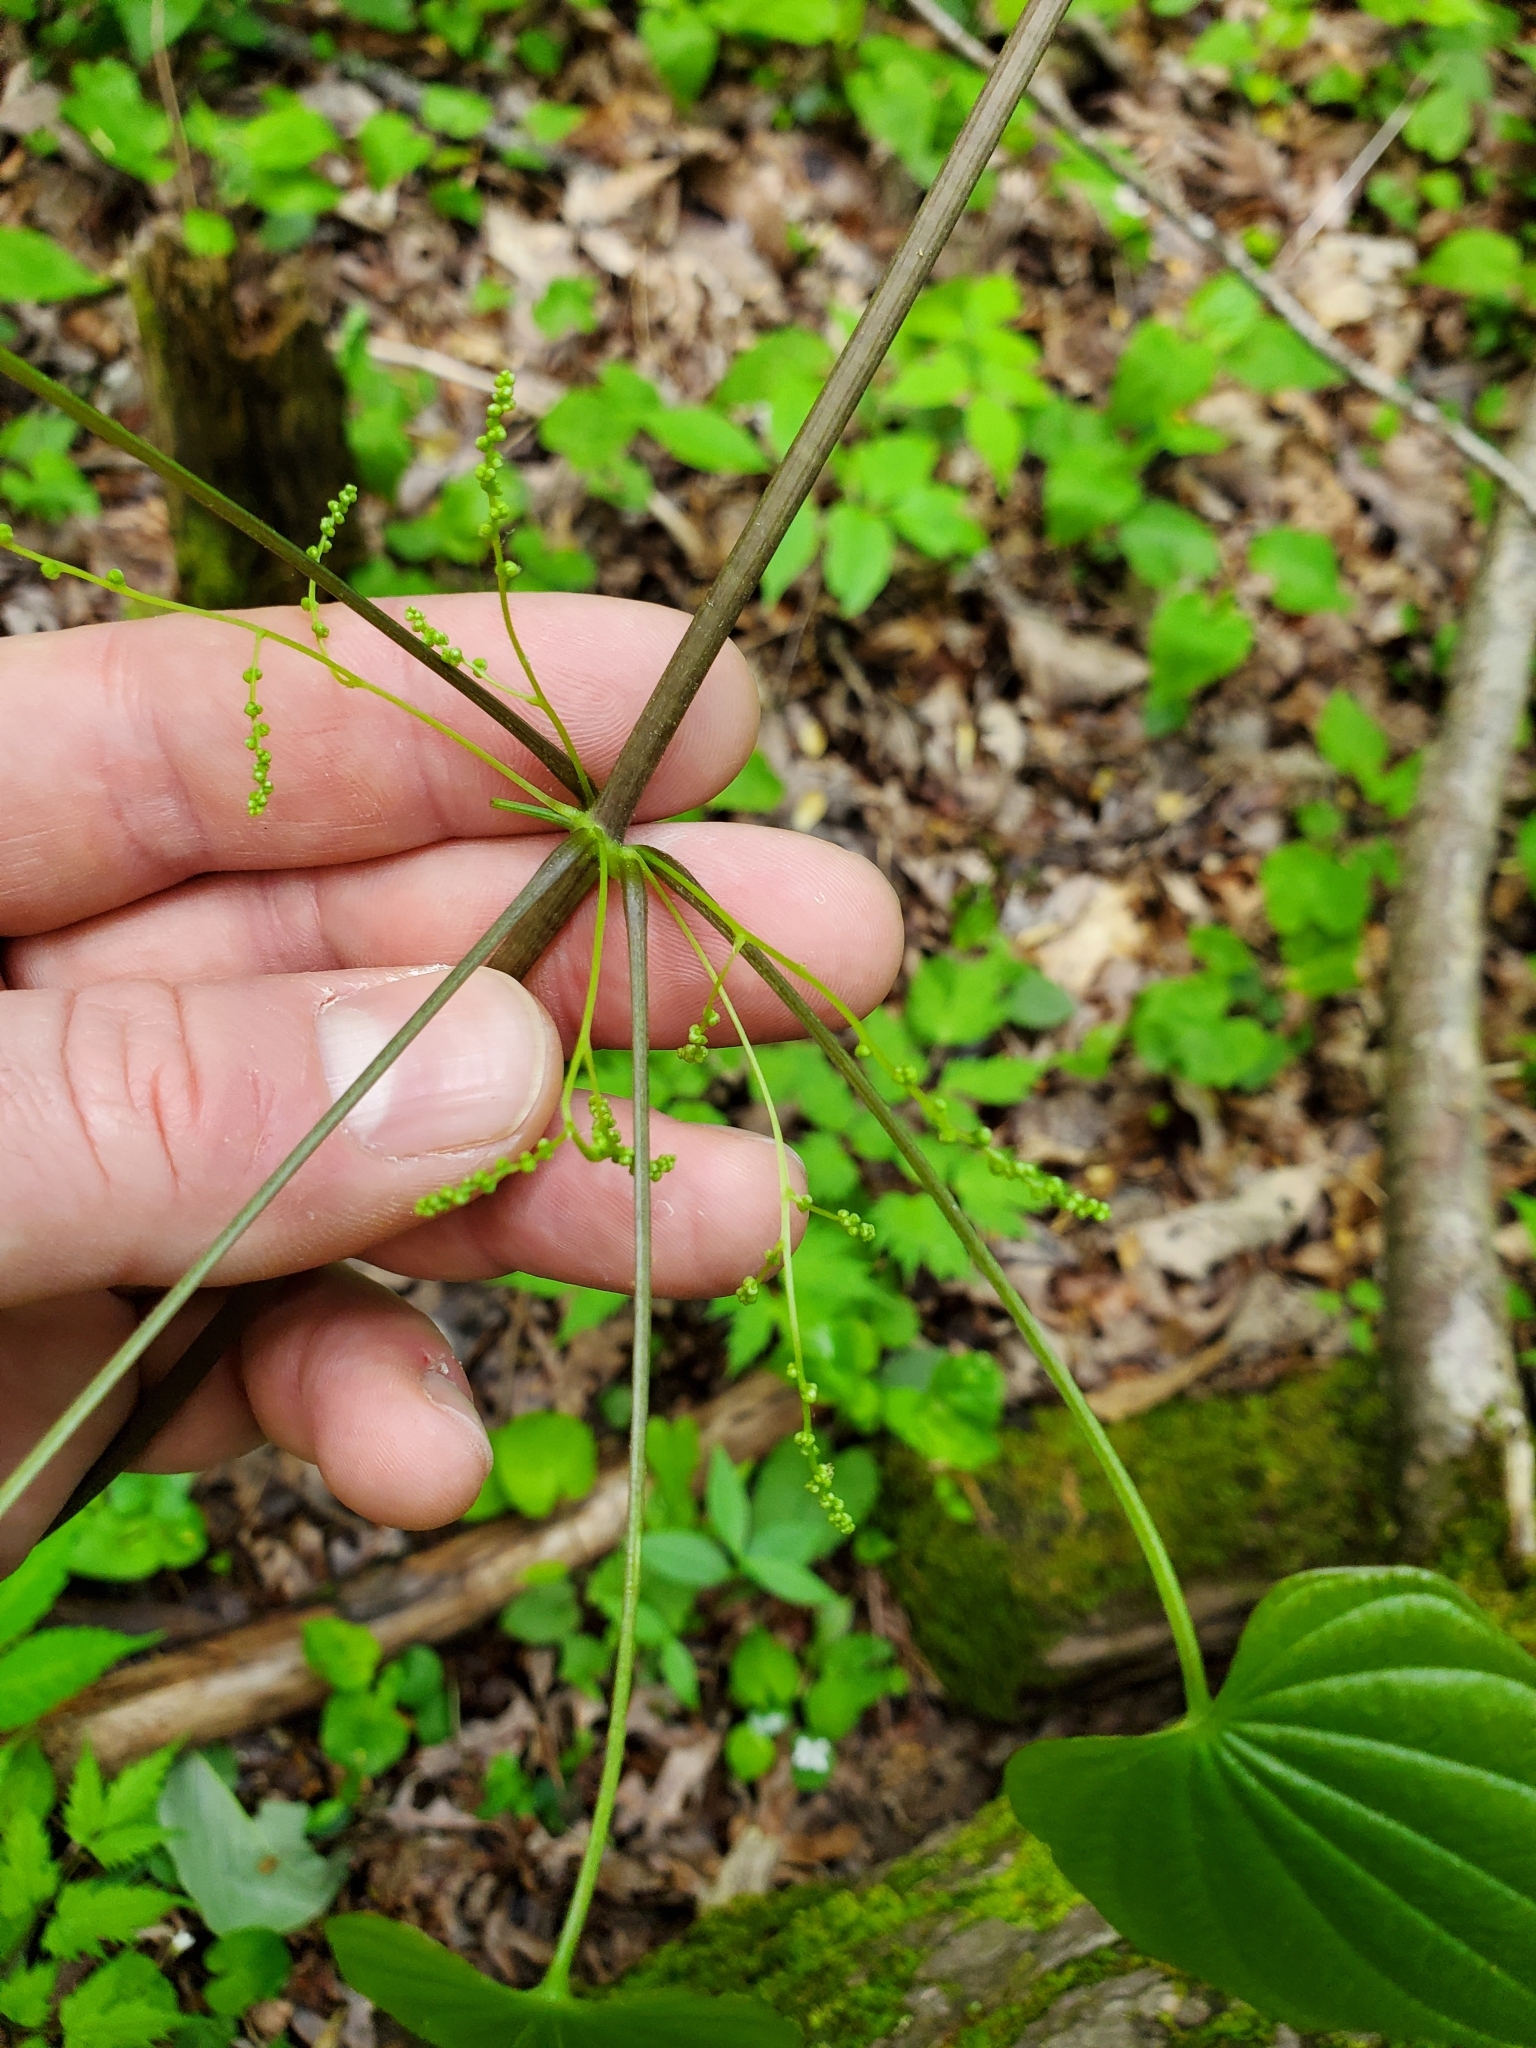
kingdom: Plantae
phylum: Tracheophyta
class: Liliopsida
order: Dioscoreales
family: Dioscoreaceae
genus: Dioscorea
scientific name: Dioscorea villosa
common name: Wild yam
